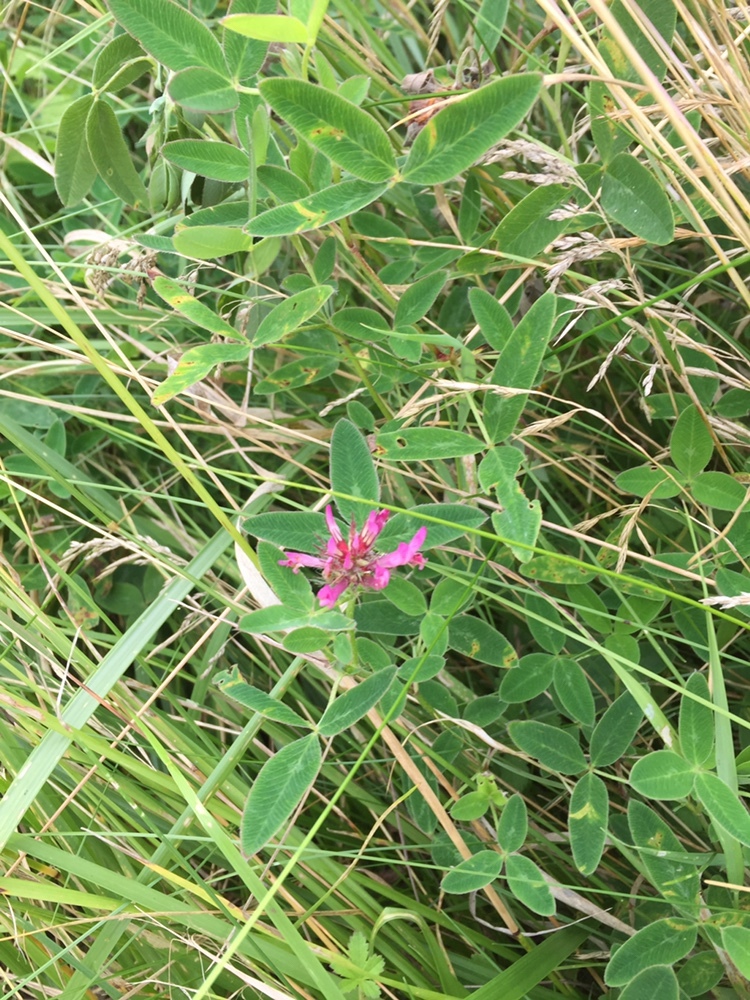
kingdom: Plantae
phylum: Tracheophyta
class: Magnoliopsida
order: Fabales
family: Fabaceae
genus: Trifolium
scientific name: Trifolium medium
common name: Zigzag clover
